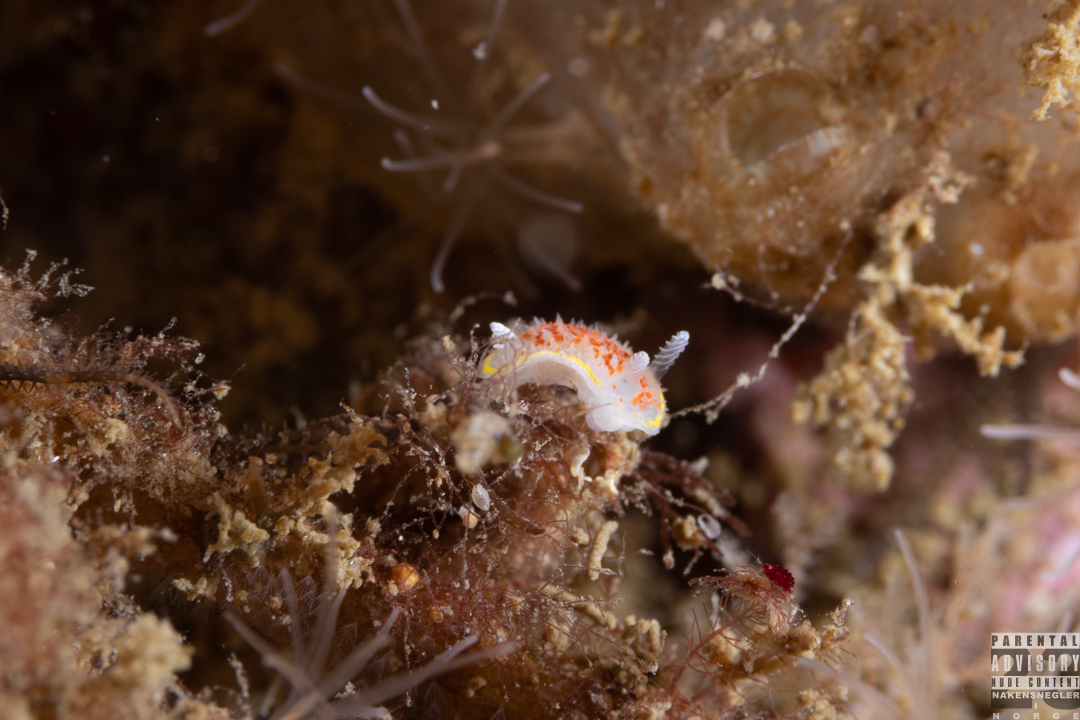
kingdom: Animalia
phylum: Mollusca
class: Gastropoda
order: Nudibranchia
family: Calycidorididae
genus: Diaphorodoris
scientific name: Diaphorodoris luteocincta
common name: Fried egg nudibranch
